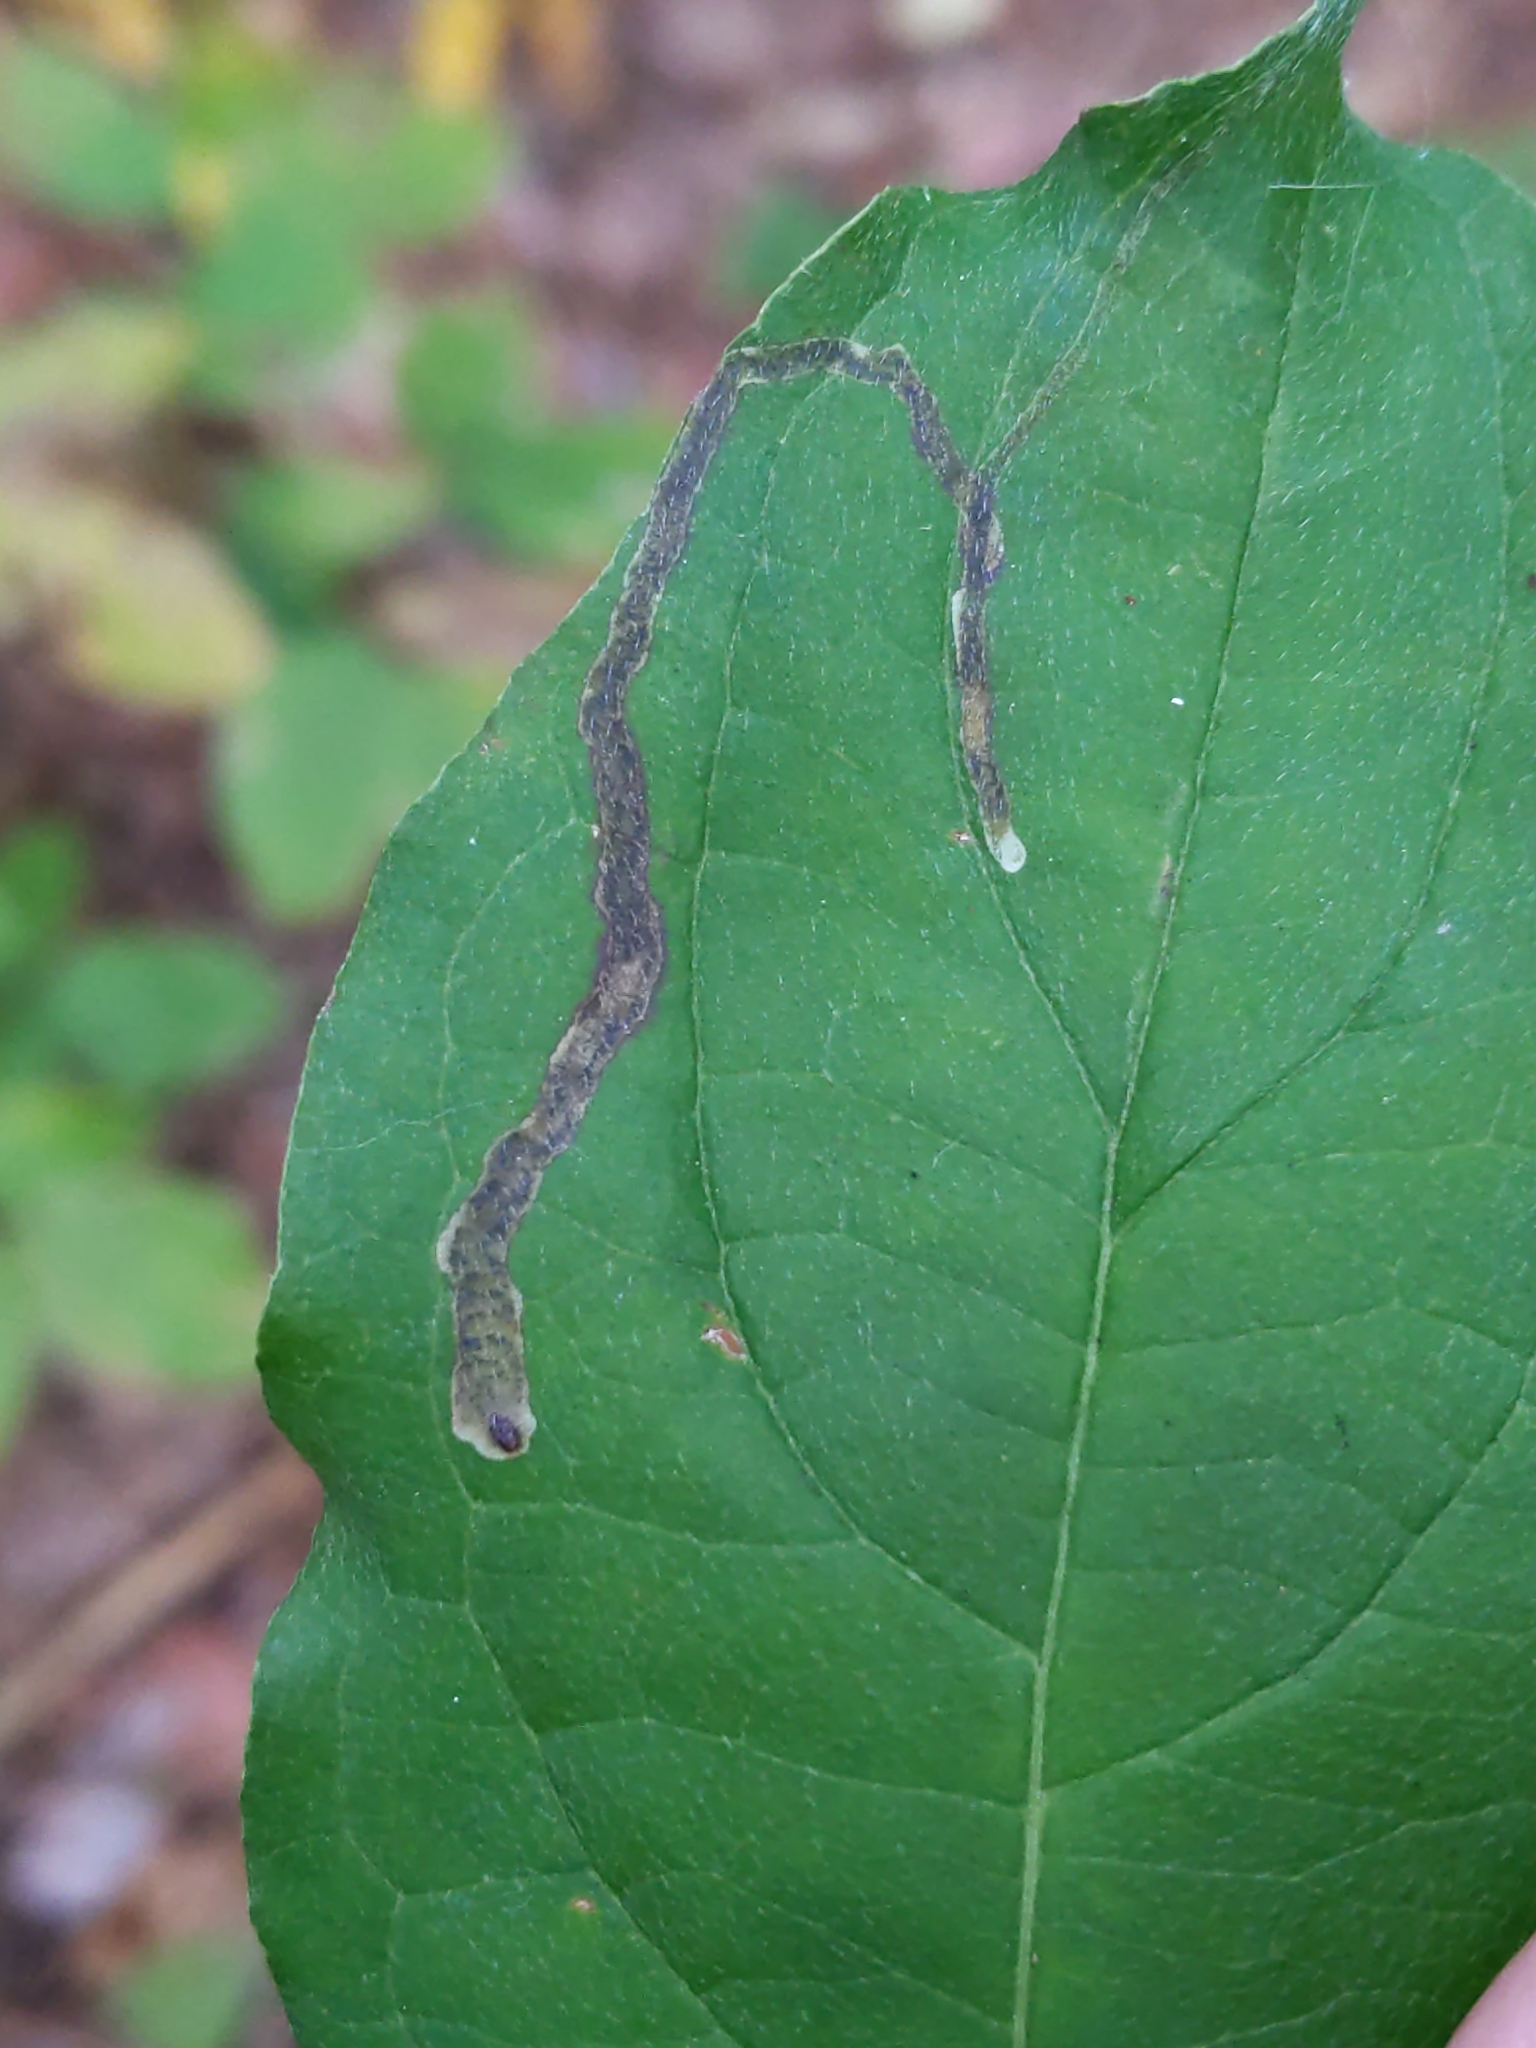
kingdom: Animalia
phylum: Arthropoda
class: Insecta
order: Diptera
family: Agromyzidae
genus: Phytomyza
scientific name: Phytomyza agromyzina
